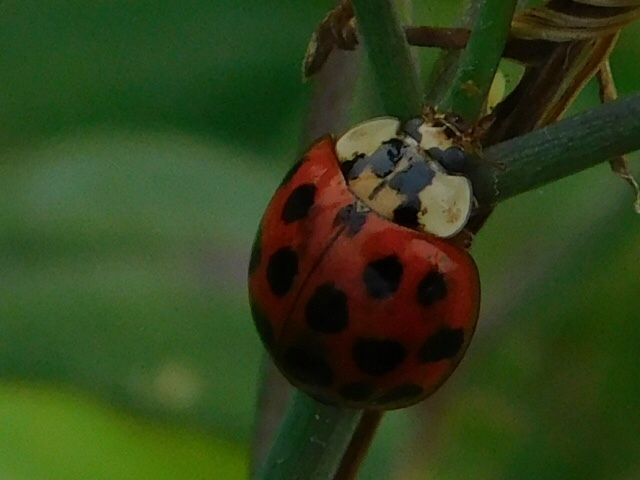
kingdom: Animalia
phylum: Arthropoda
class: Insecta
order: Coleoptera
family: Coccinellidae
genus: Harmonia
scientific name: Harmonia axyridis
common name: Harlequin ladybird
